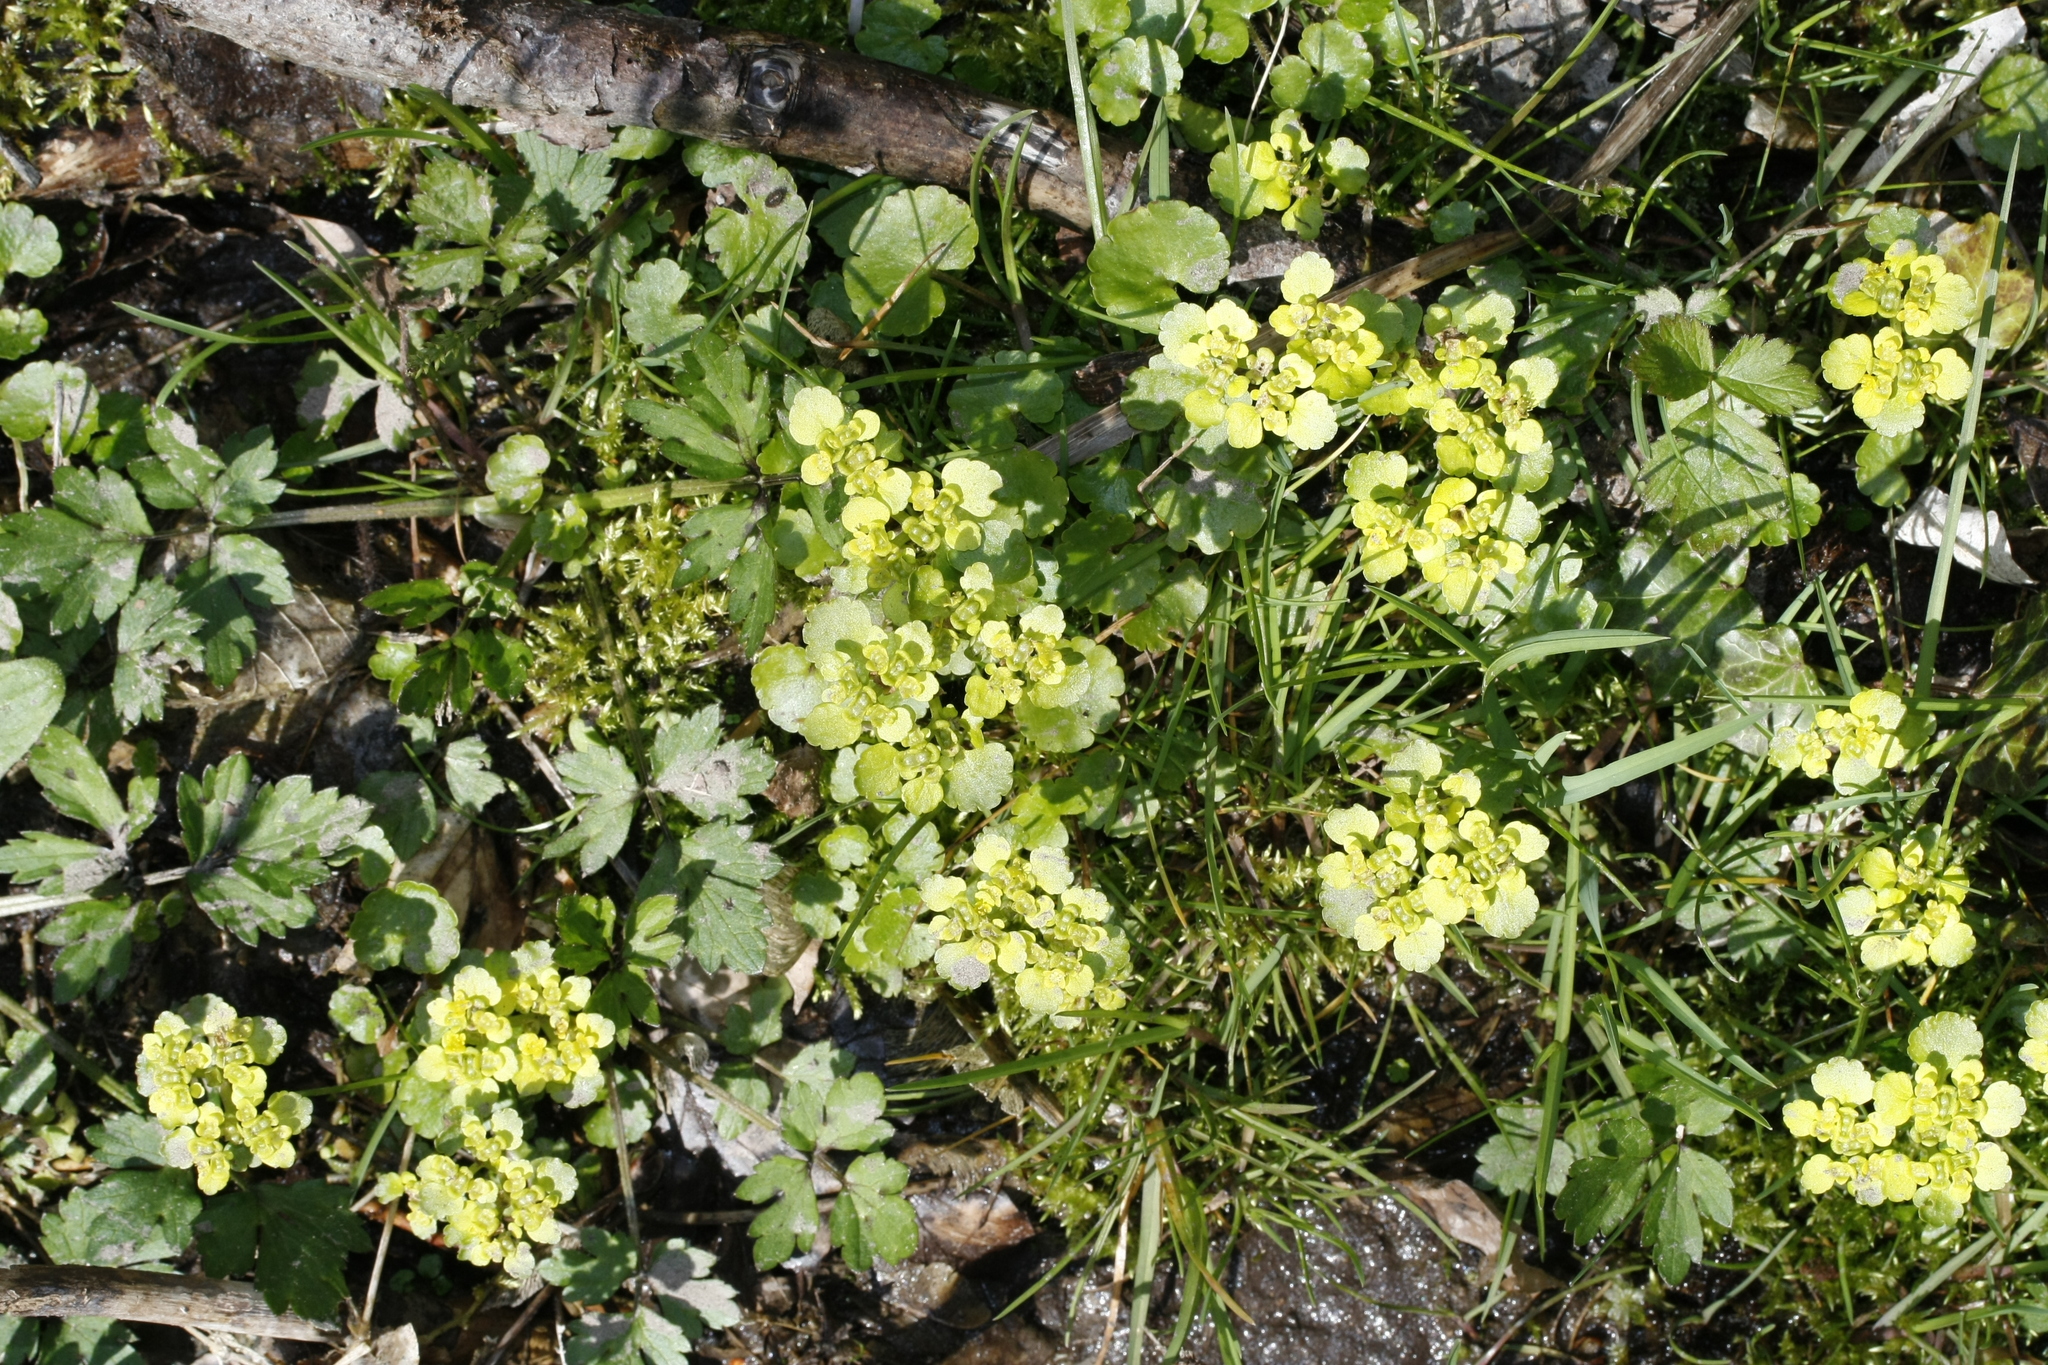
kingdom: Plantae
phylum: Tracheophyta
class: Magnoliopsida
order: Saxifragales
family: Saxifragaceae
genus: Chrysosplenium
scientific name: Chrysosplenium alternifolium
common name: Alternate-leaved golden-saxifrage
